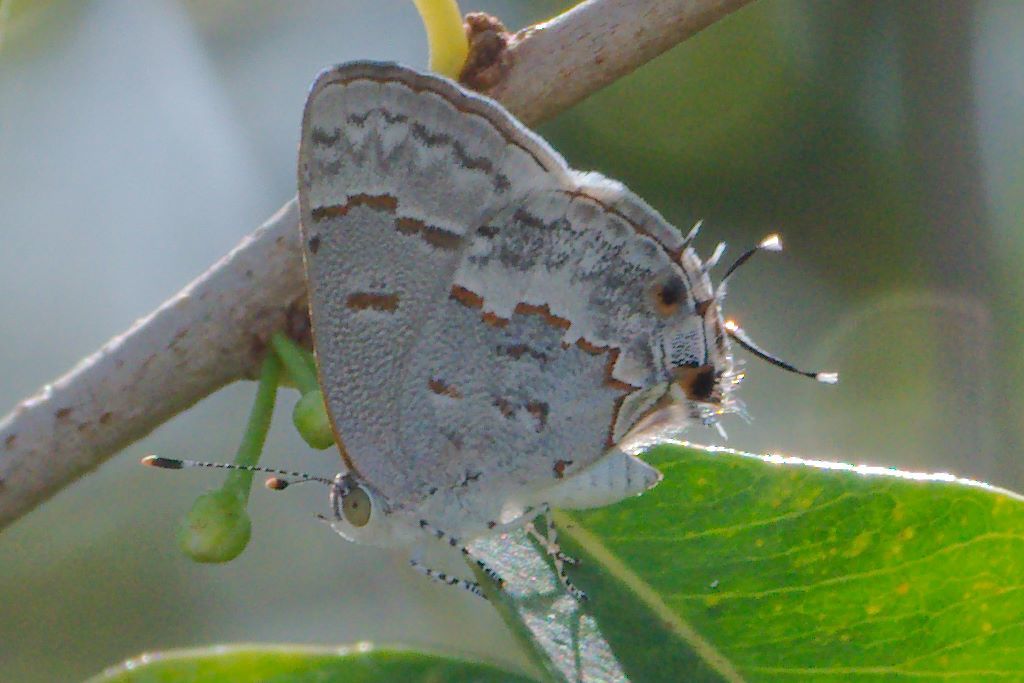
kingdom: Animalia
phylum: Arthropoda
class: Insecta
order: Lepidoptera
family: Lycaenidae
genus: Ministrymon
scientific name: Ministrymon clytie
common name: Clytie ministreak
